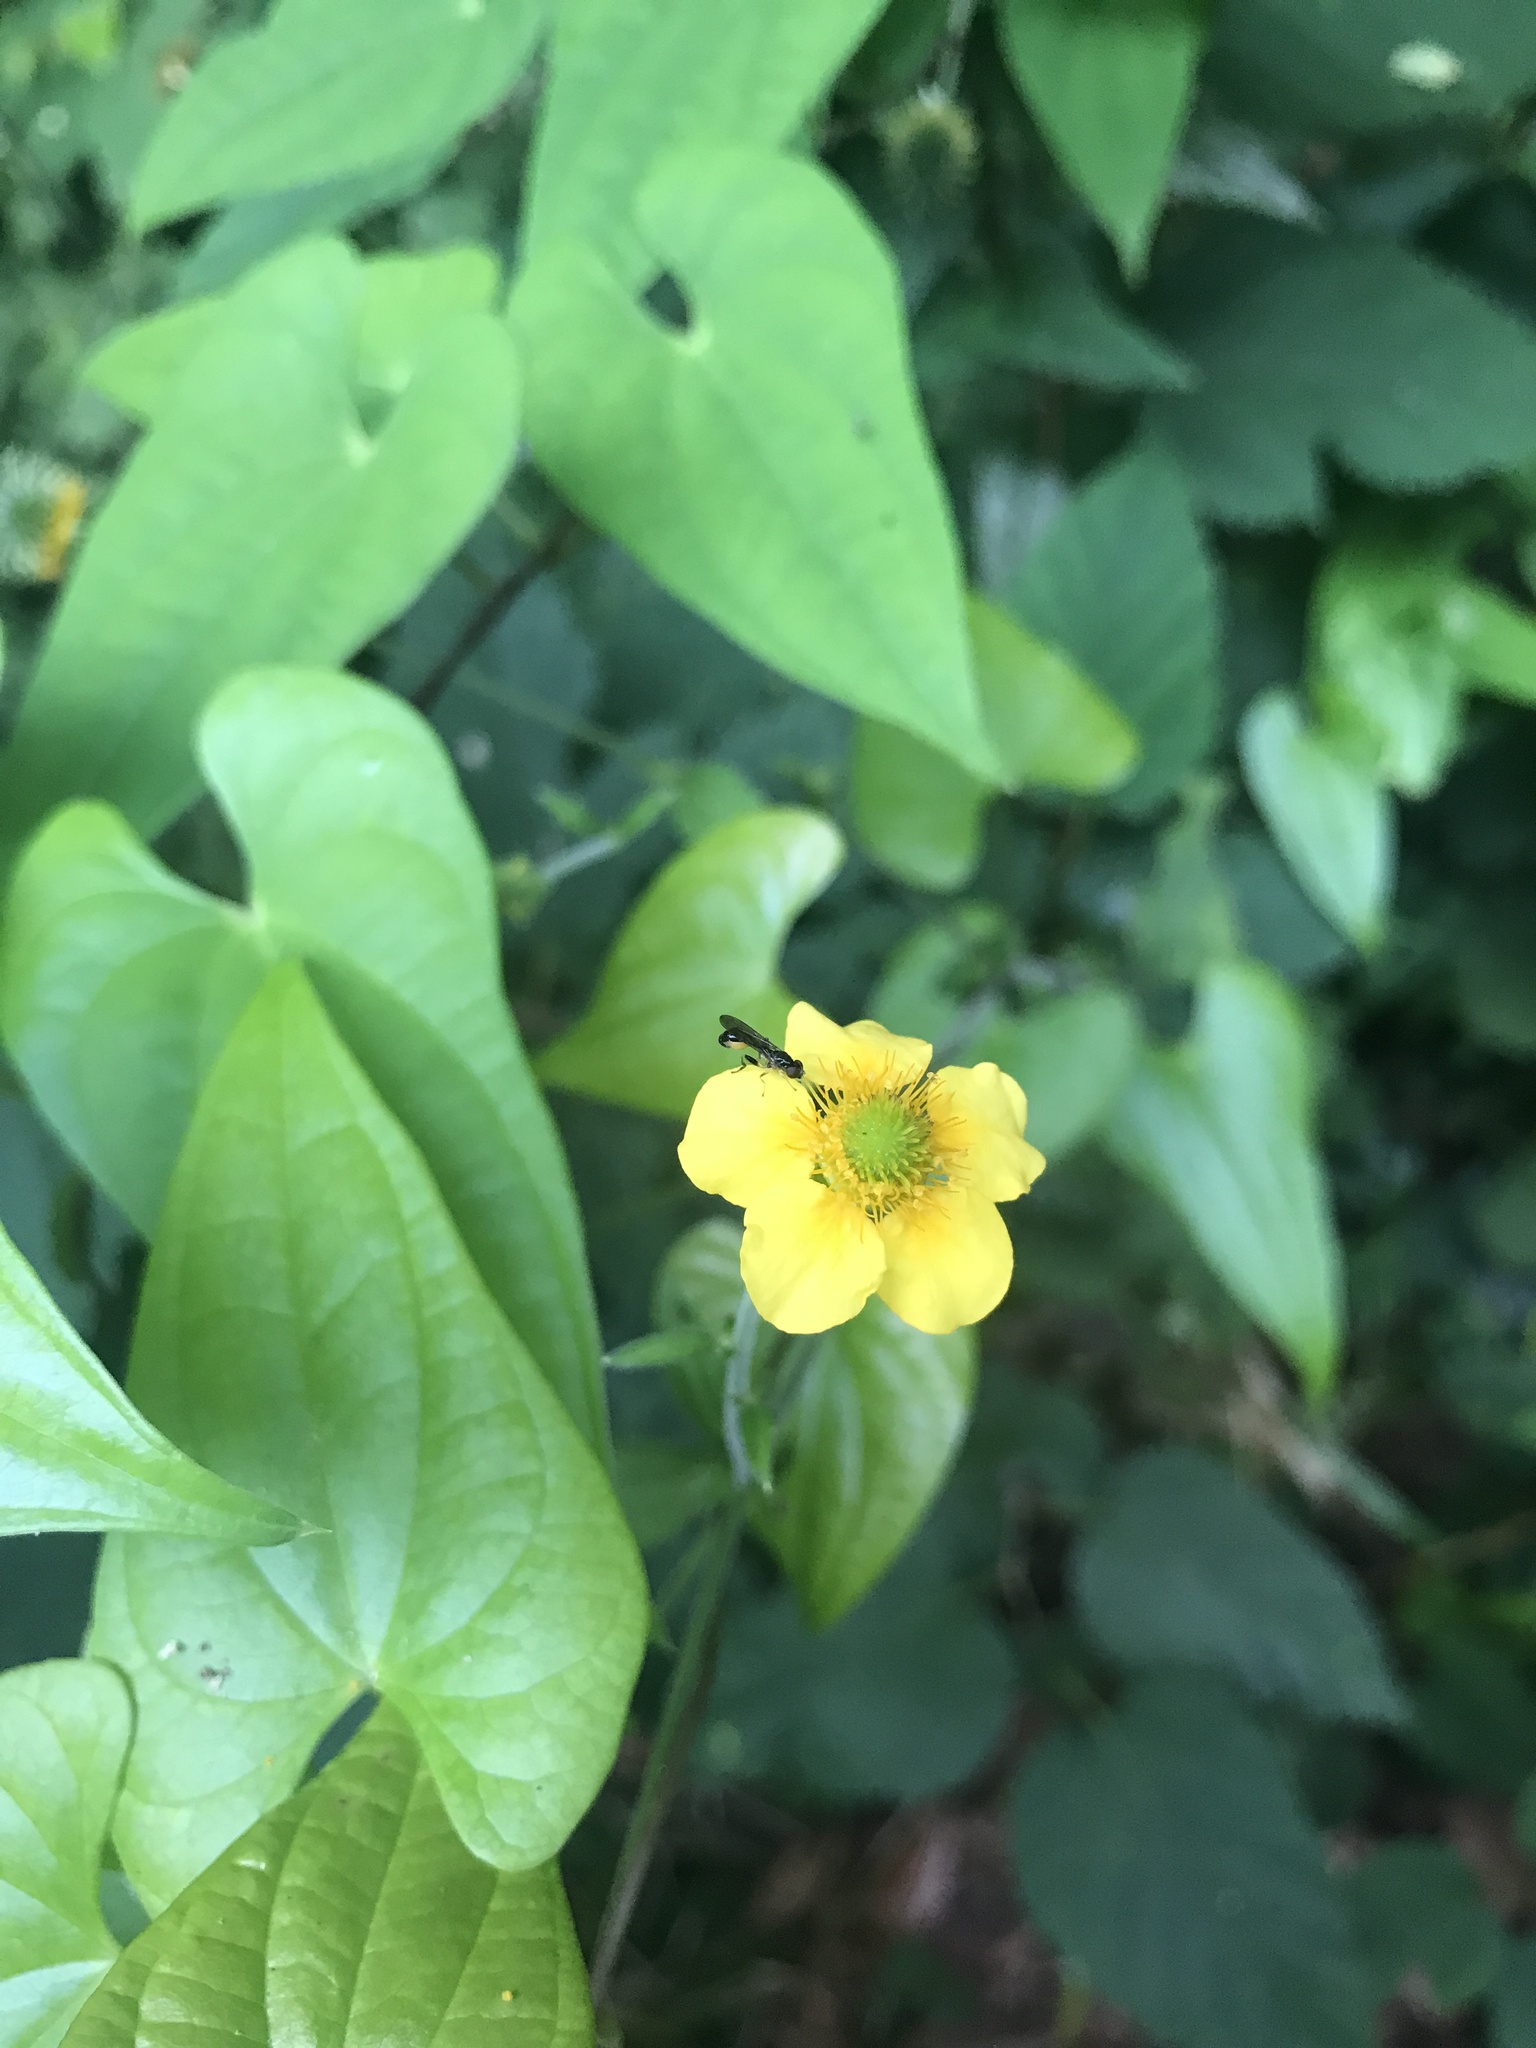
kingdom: Plantae
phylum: Tracheophyta
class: Magnoliopsida
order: Rosales
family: Rosaceae
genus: Geum
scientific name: Geum japonicum
